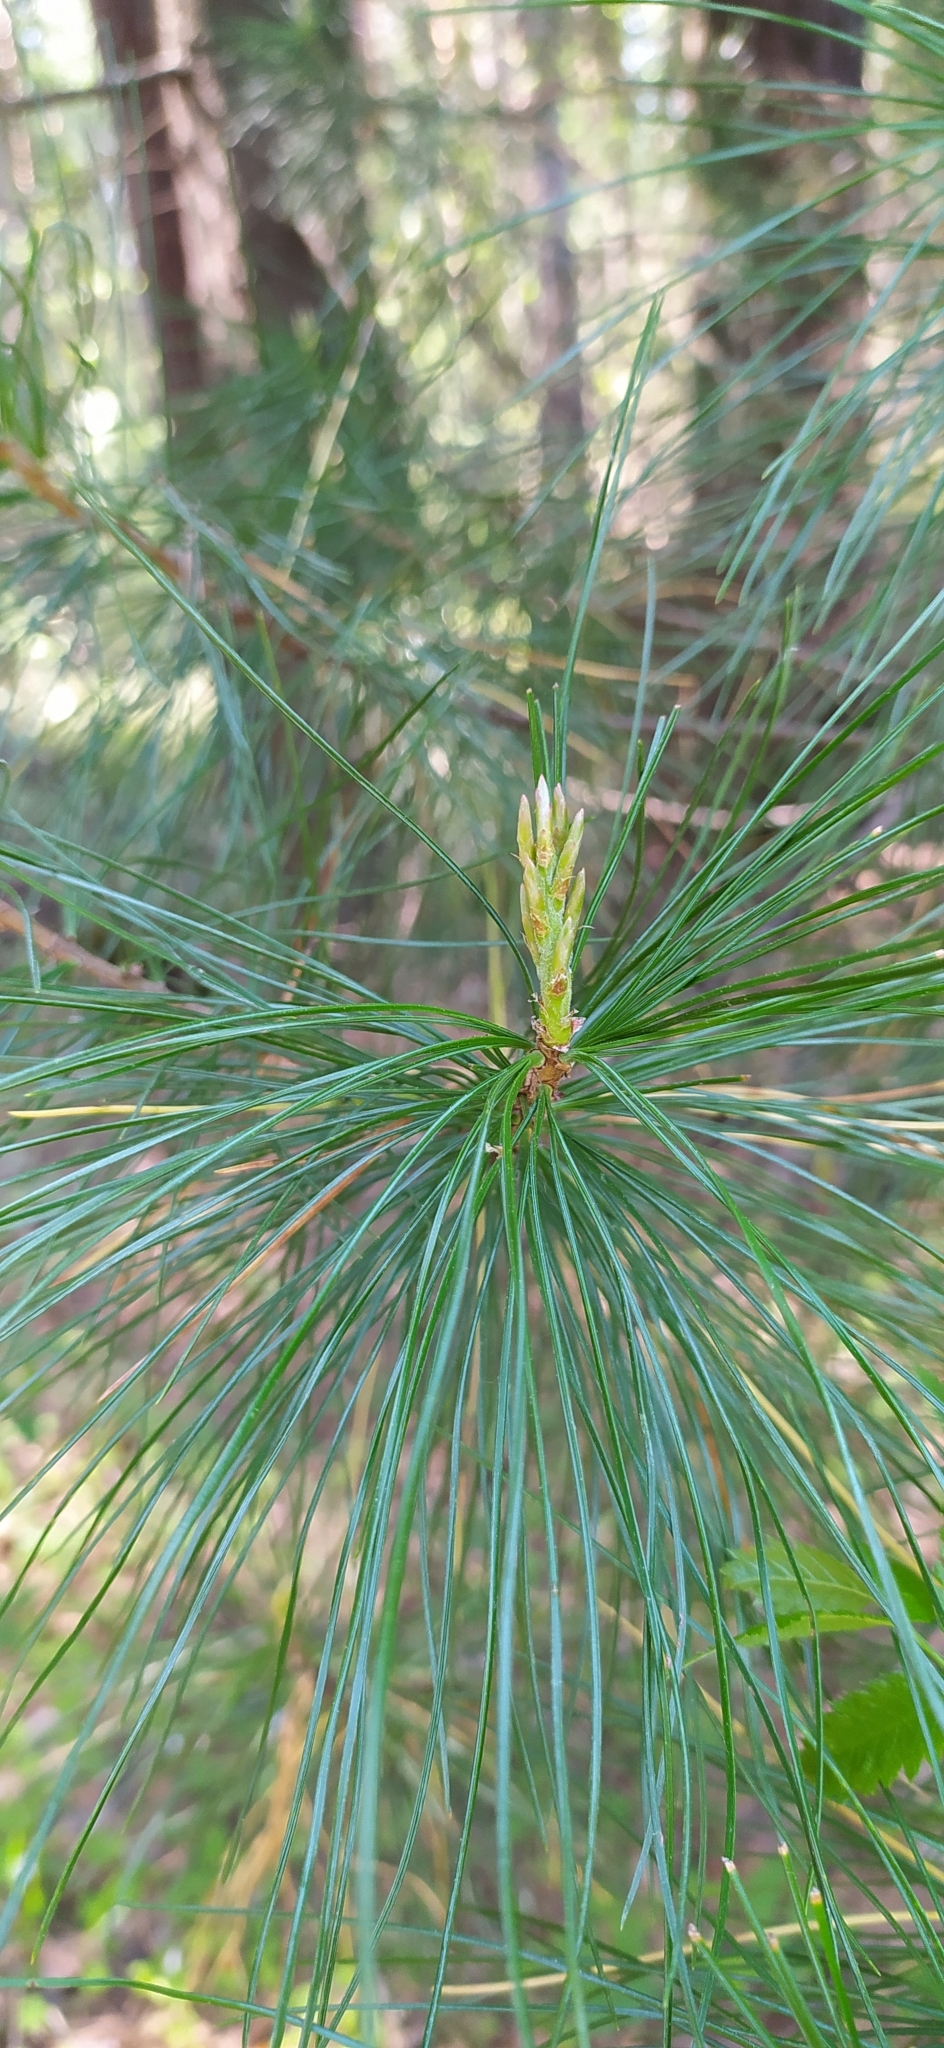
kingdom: Plantae
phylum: Tracheophyta
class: Pinopsida
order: Pinales
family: Pinaceae
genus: Pinus
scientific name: Pinus sibirica
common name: Siberian pine
